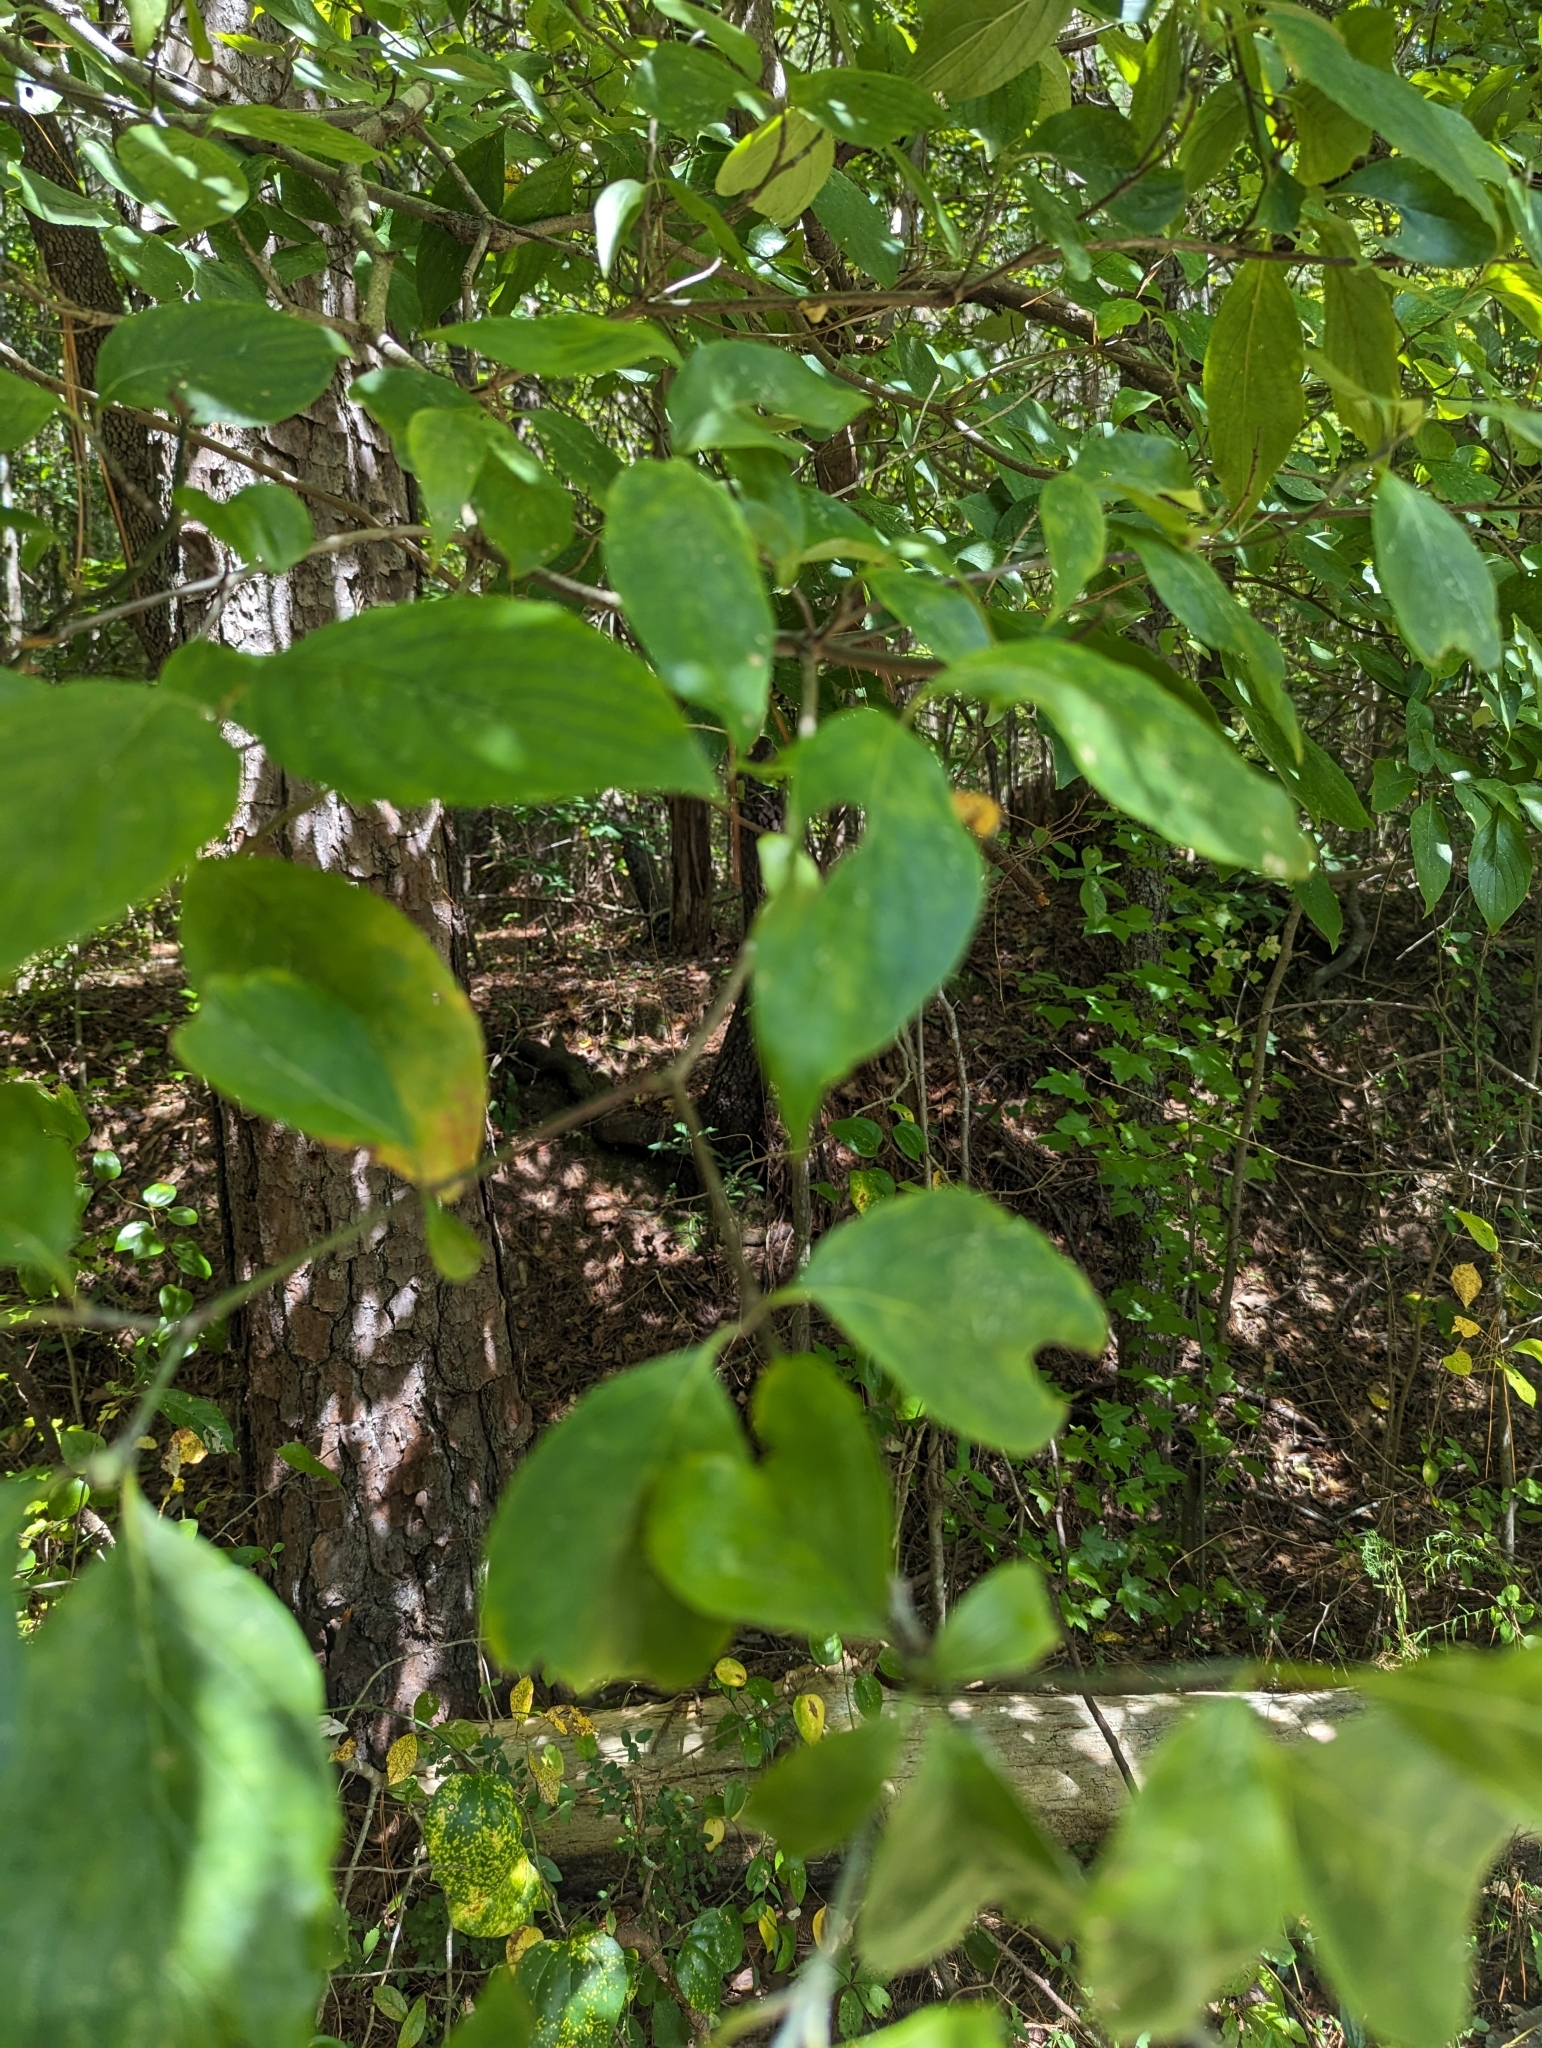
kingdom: Plantae
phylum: Tracheophyta
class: Magnoliopsida
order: Cornales
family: Cornaceae
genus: Cornus
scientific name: Cornus florida
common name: Flowering dogwood
